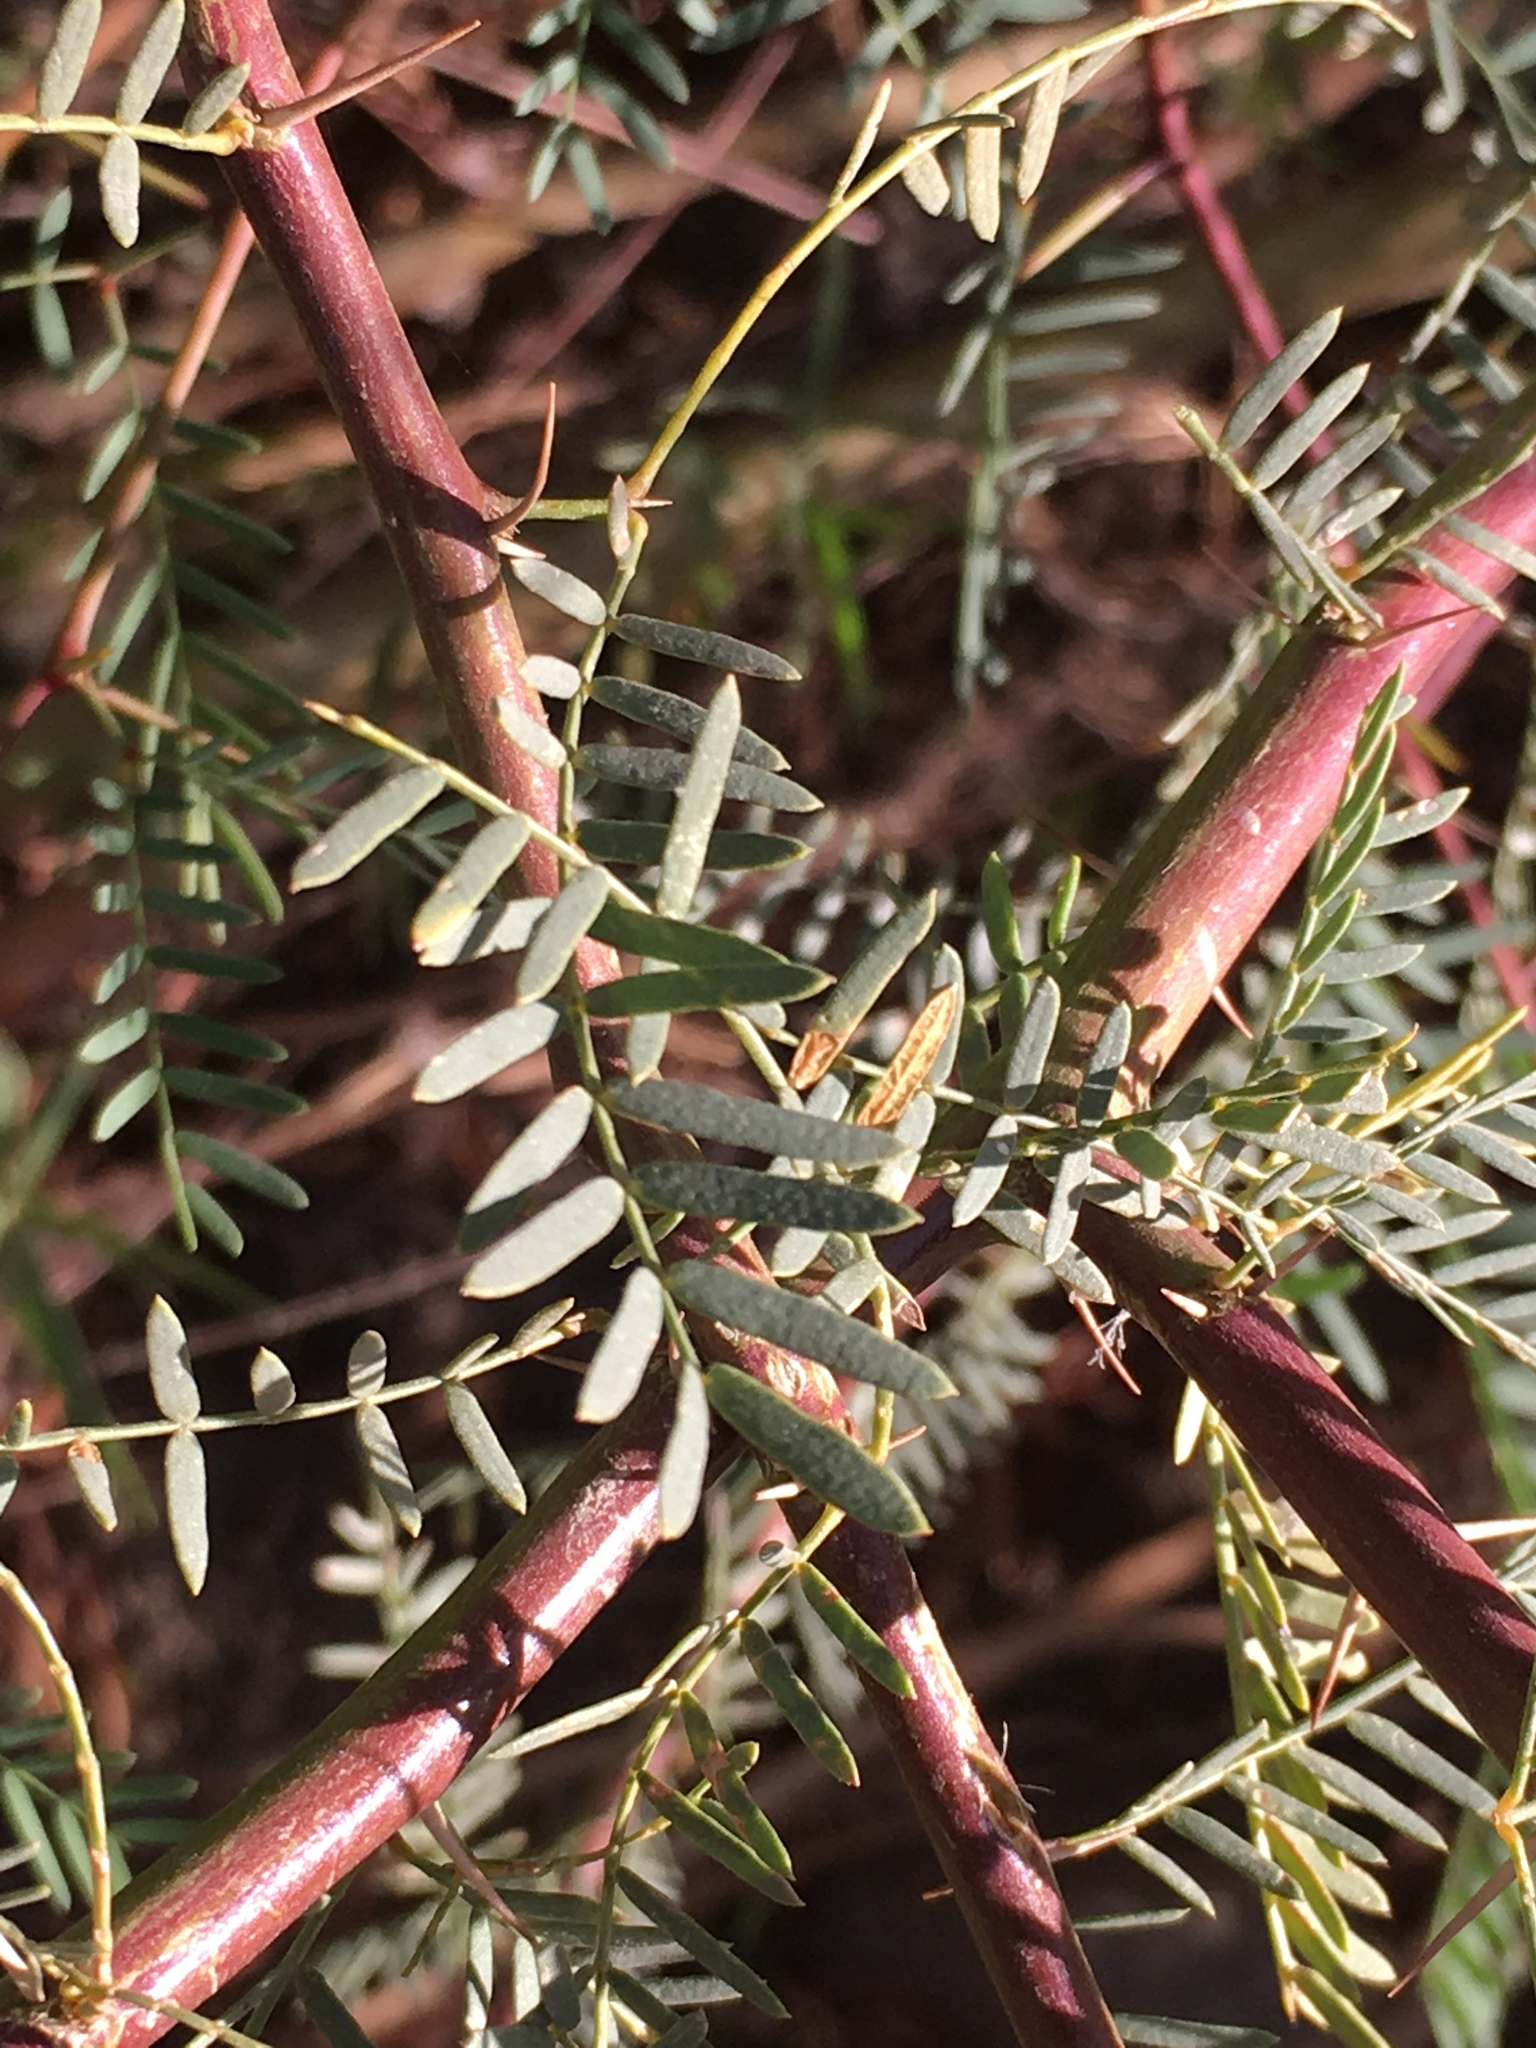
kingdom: Plantae
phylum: Tracheophyta
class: Magnoliopsida
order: Fabales
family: Fabaceae
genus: Prosopis
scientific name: Prosopis pubescens
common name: Screw-bean
